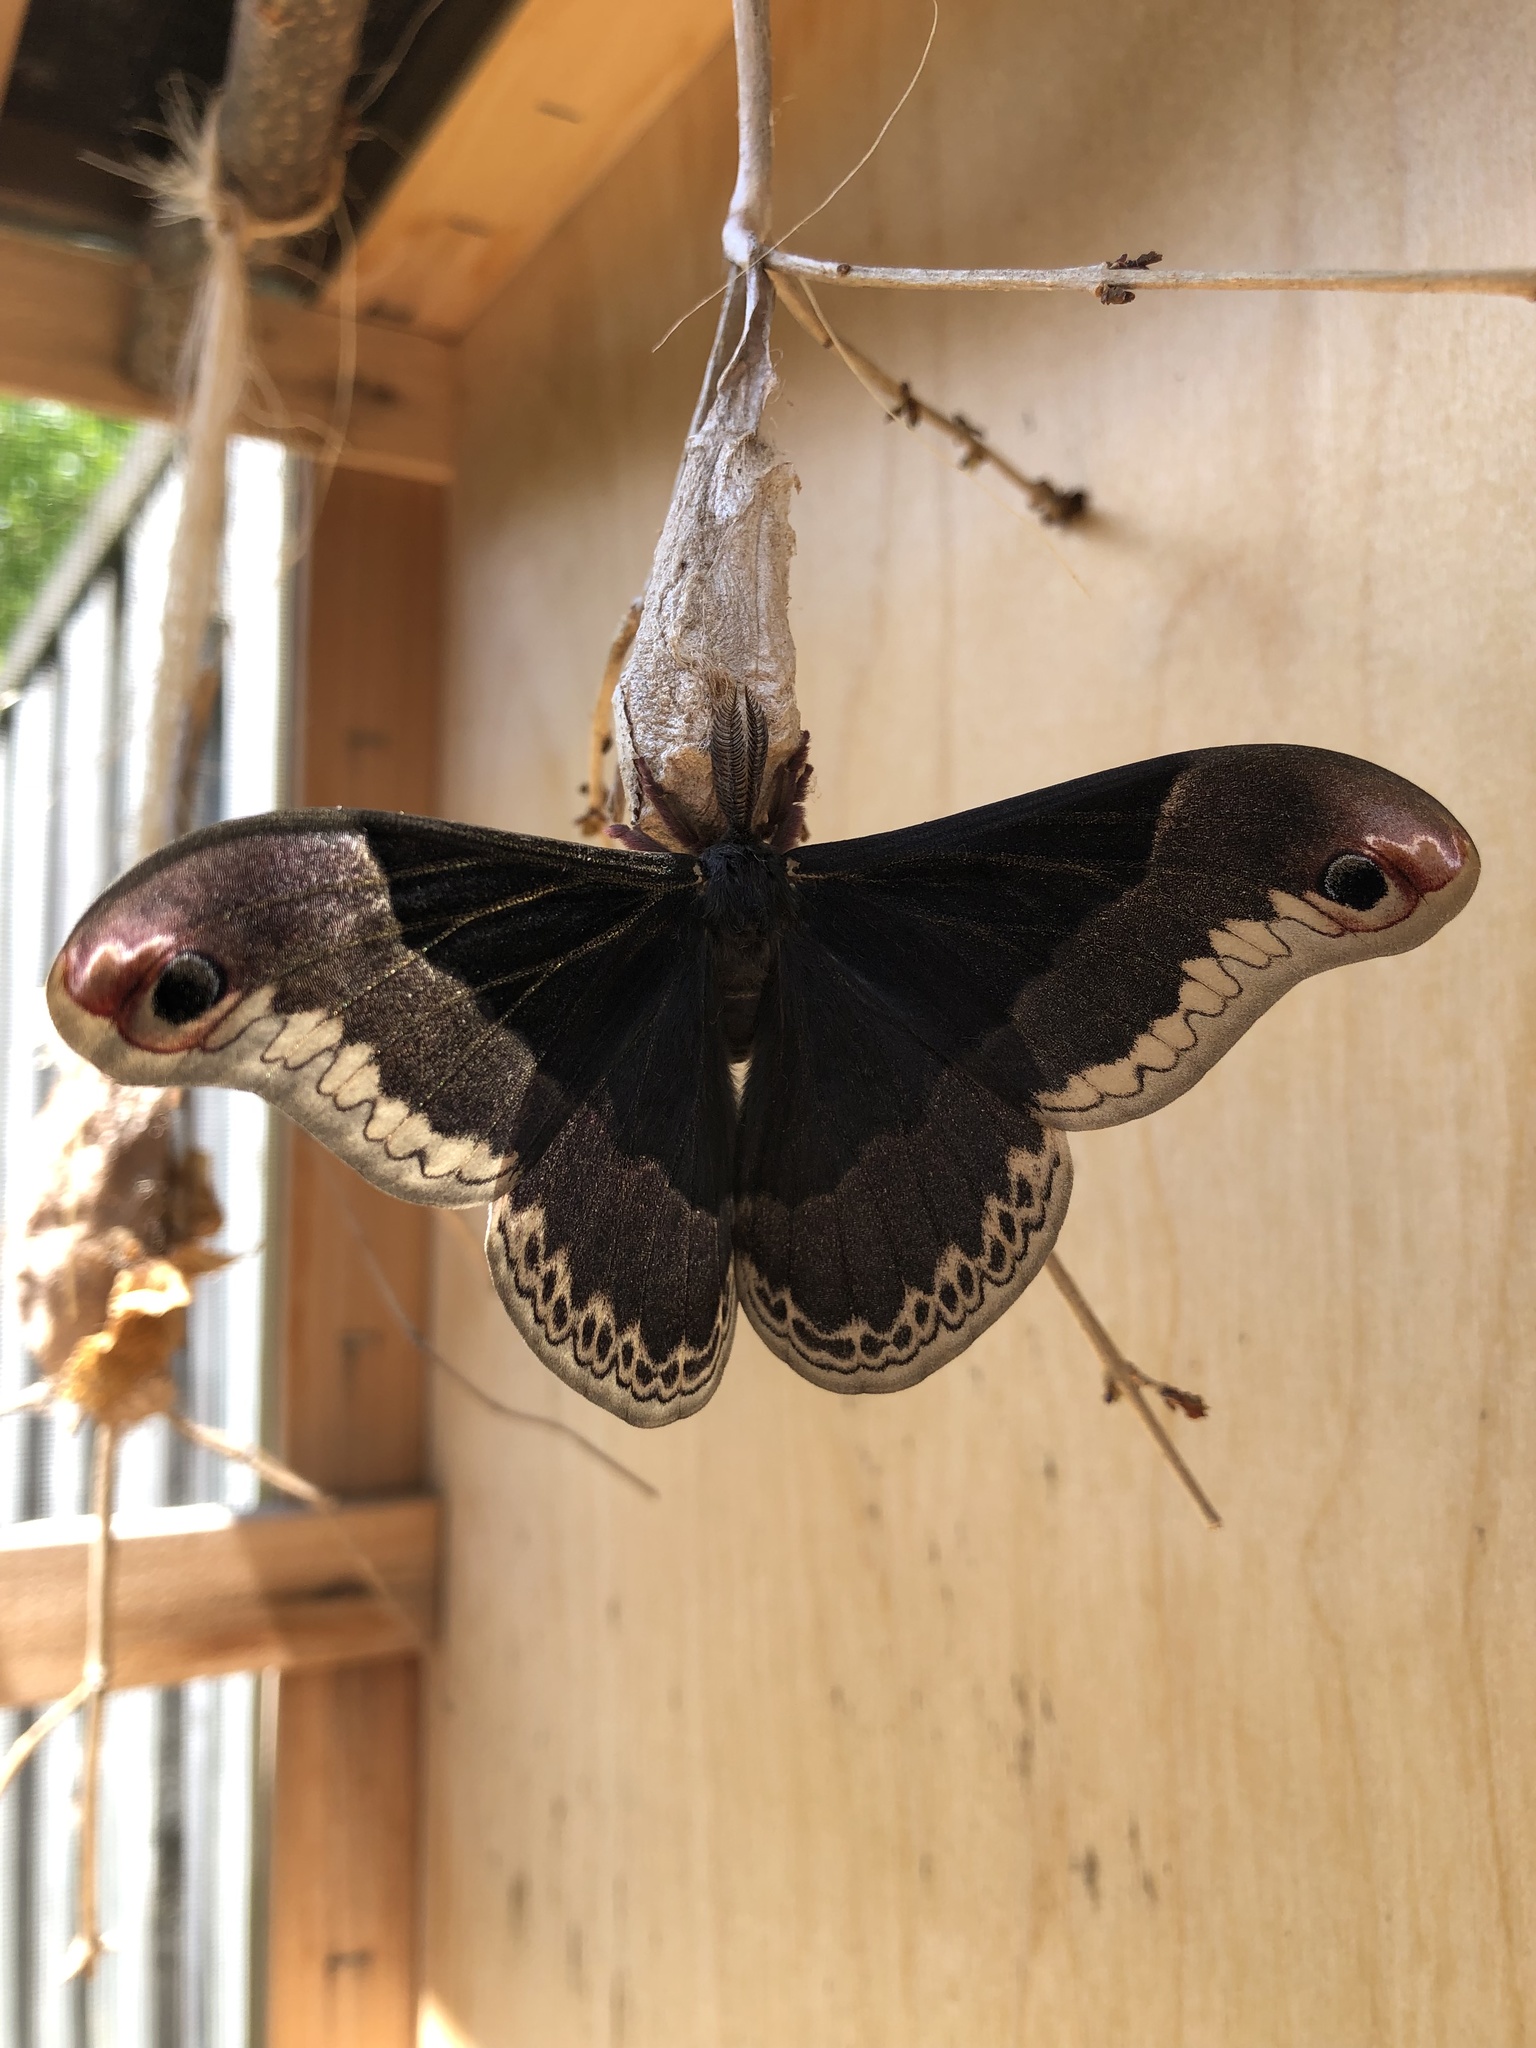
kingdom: Animalia
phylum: Arthropoda
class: Insecta
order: Lepidoptera
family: Saturniidae
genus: Callosamia
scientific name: Callosamia promethea
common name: Promethea silkmoth
